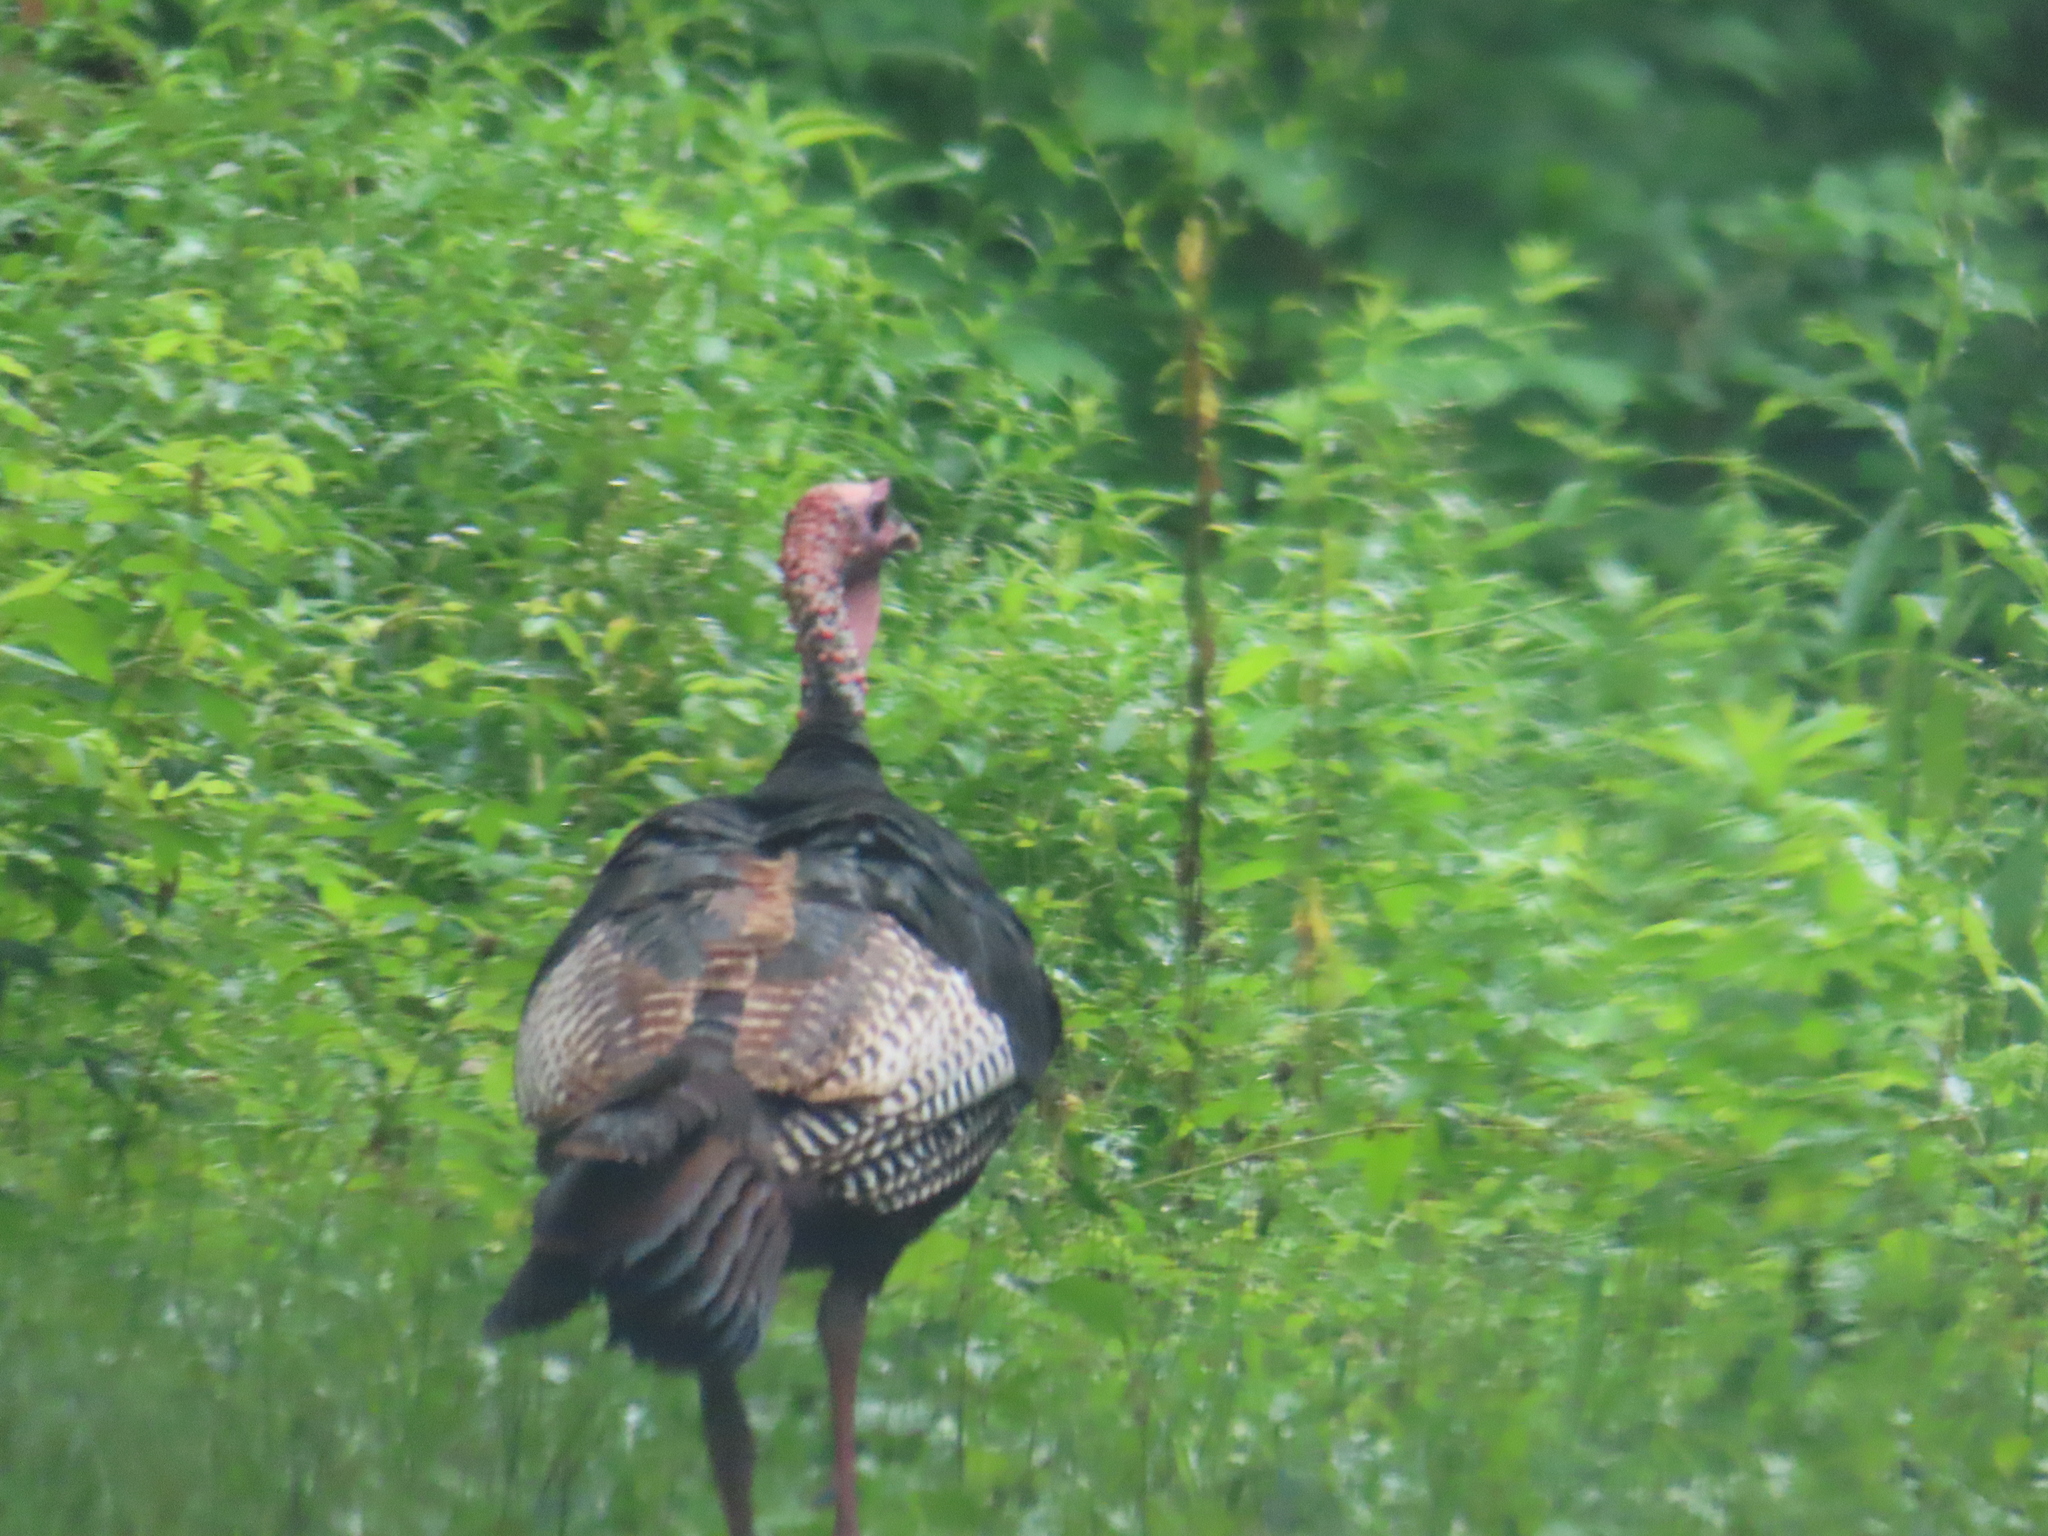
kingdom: Animalia
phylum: Chordata
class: Aves
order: Galliformes
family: Phasianidae
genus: Meleagris
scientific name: Meleagris gallopavo
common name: Wild turkey
